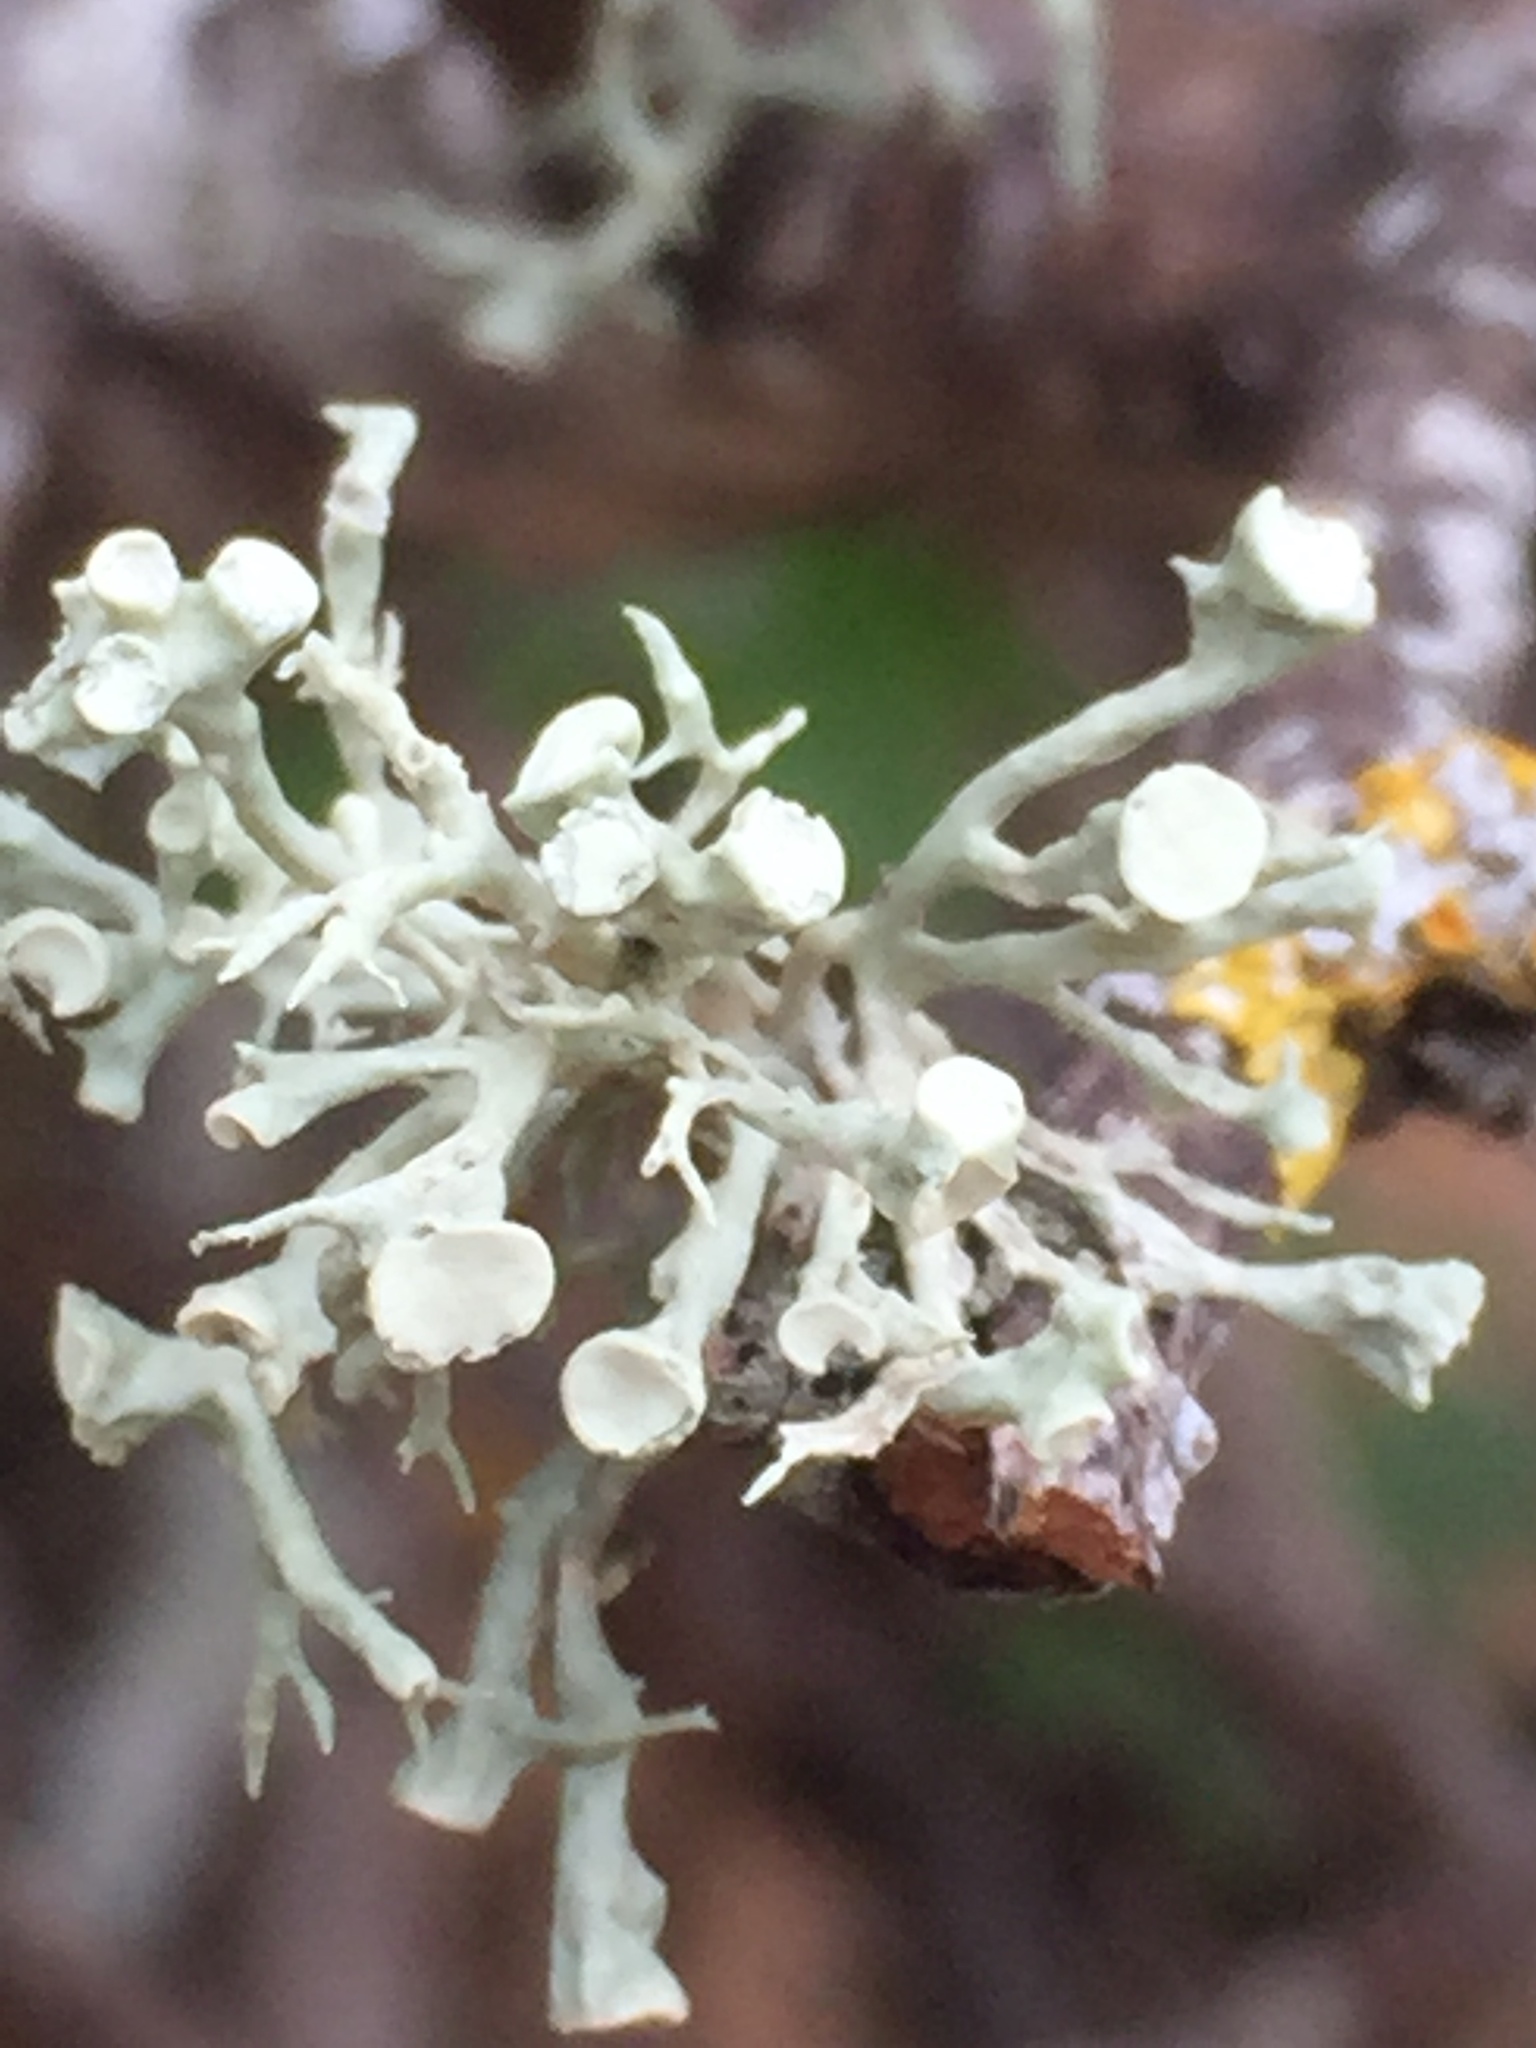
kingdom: Fungi
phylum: Ascomycota
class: Lecanoromycetes
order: Lecanorales
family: Ramalinaceae
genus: Ramalina
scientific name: Ramalina fastigiata
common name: Dotted ribbon lichen
